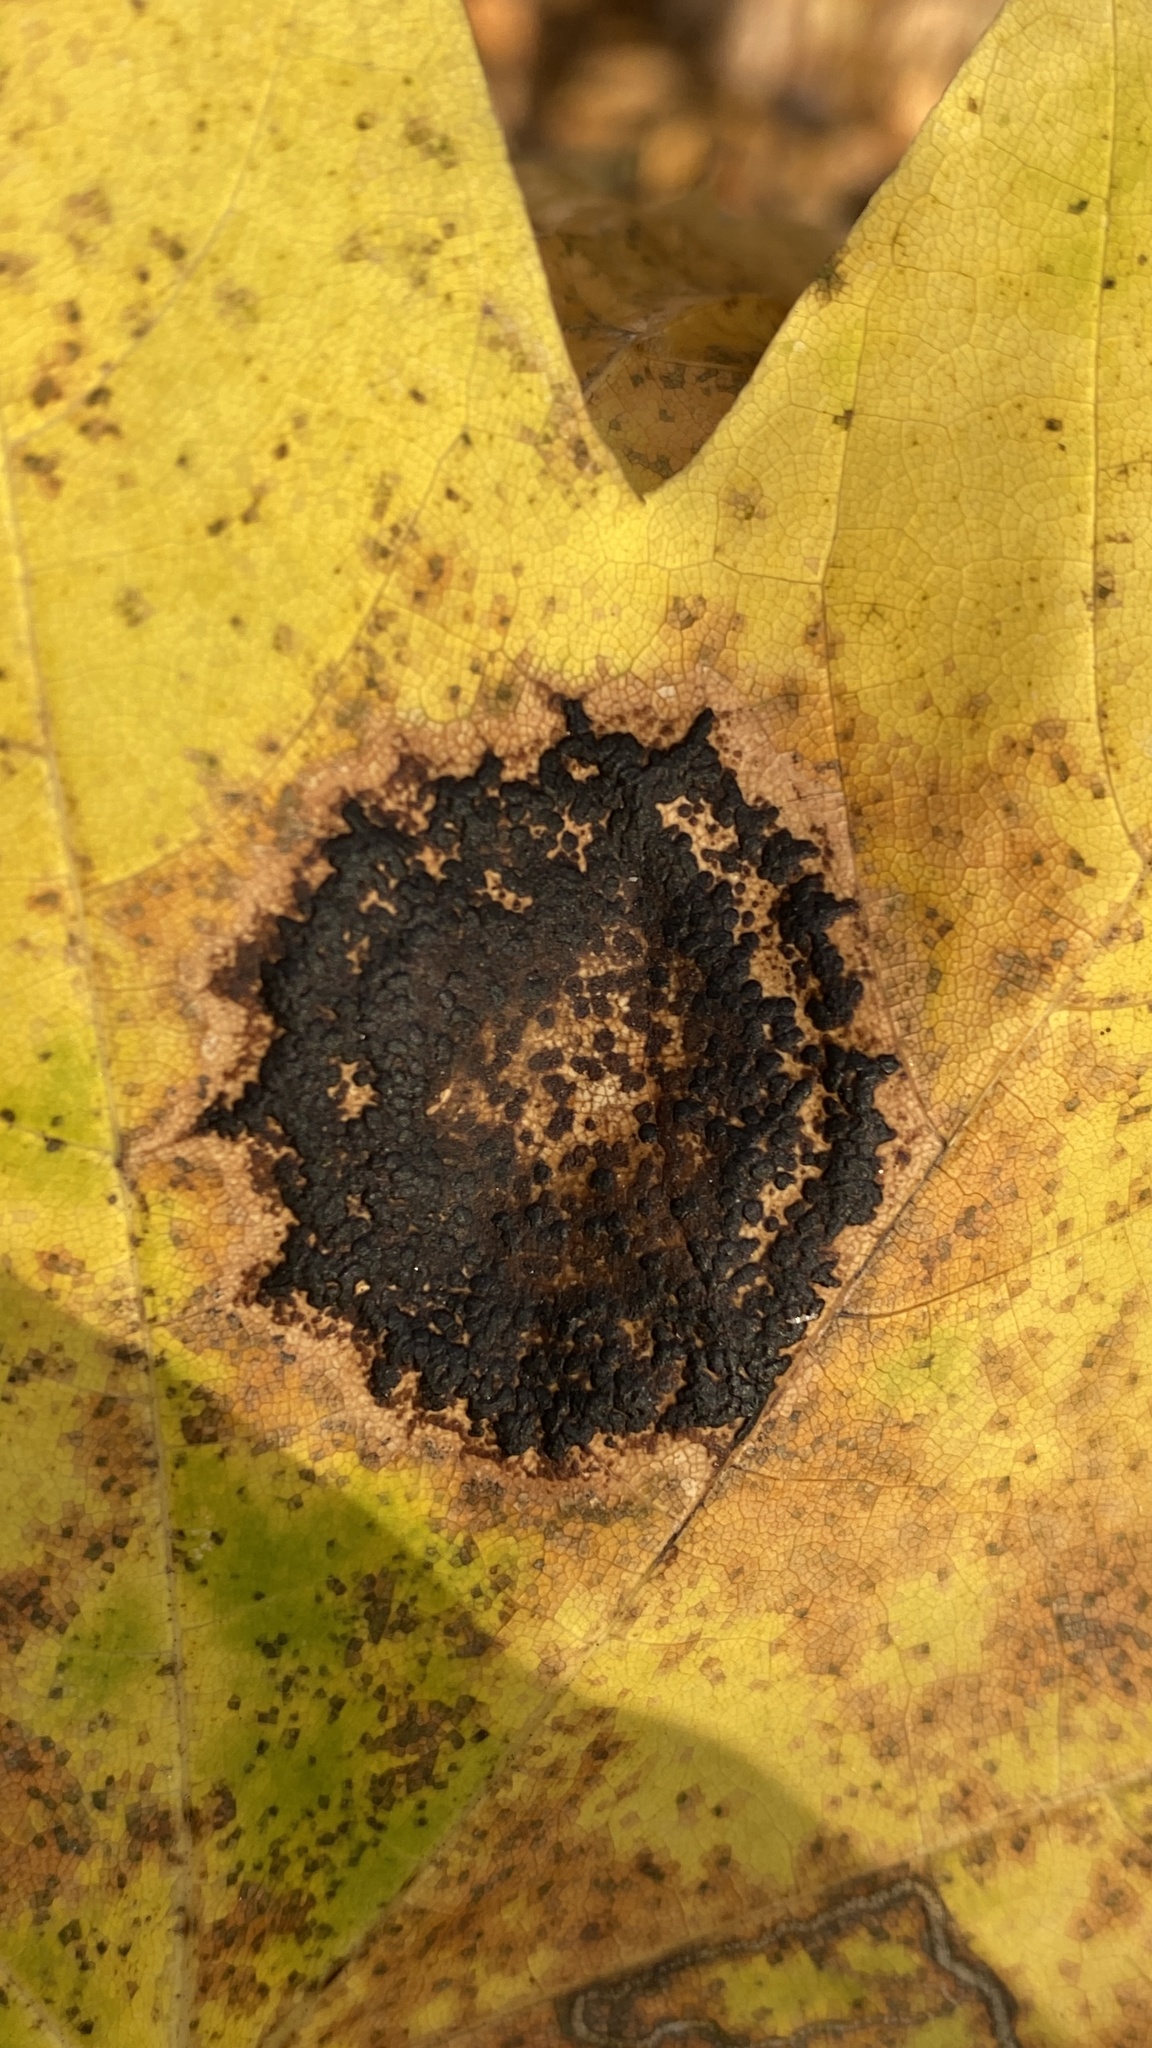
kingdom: Fungi
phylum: Ascomycota
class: Leotiomycetes
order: Rhytismatales
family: Rhytismataceae
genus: Rhytisma
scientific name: Rhytisma acerinum
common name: European tar spot
